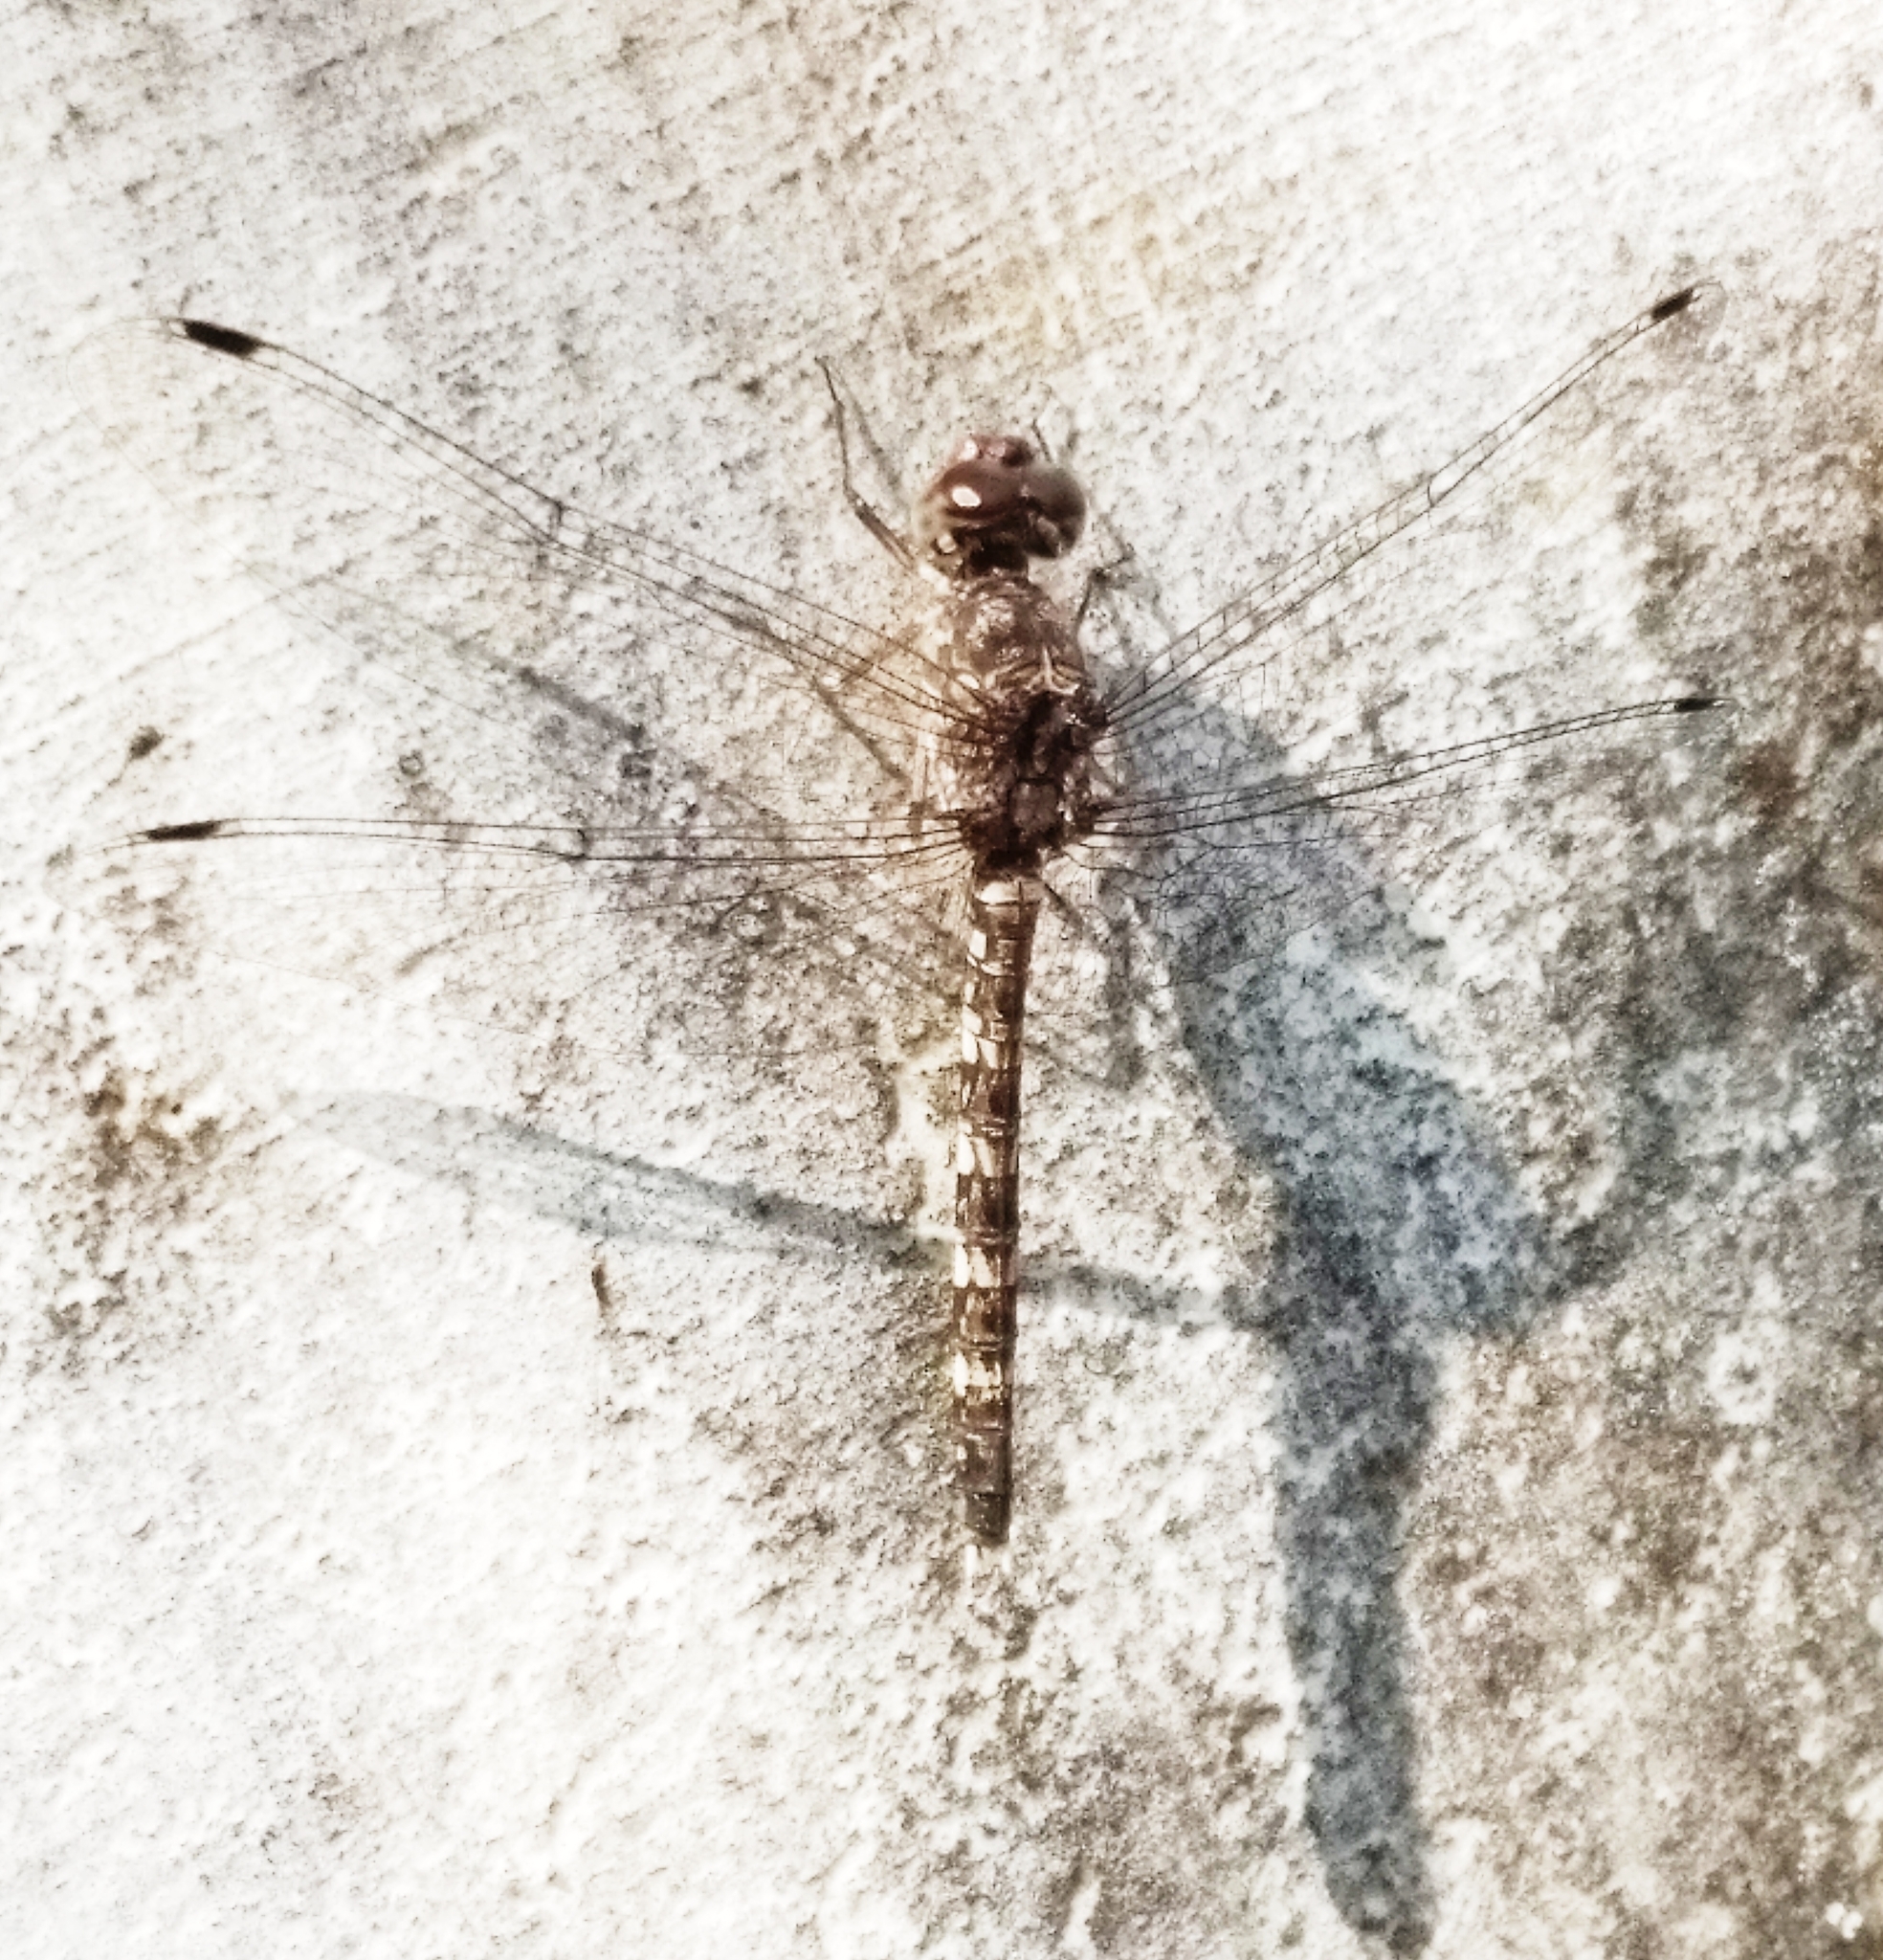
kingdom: Animalia
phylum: Arthropoda
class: Insecta
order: Odonata
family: Libellulidae
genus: Bradinopyga
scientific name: Bradinopyga geminata
